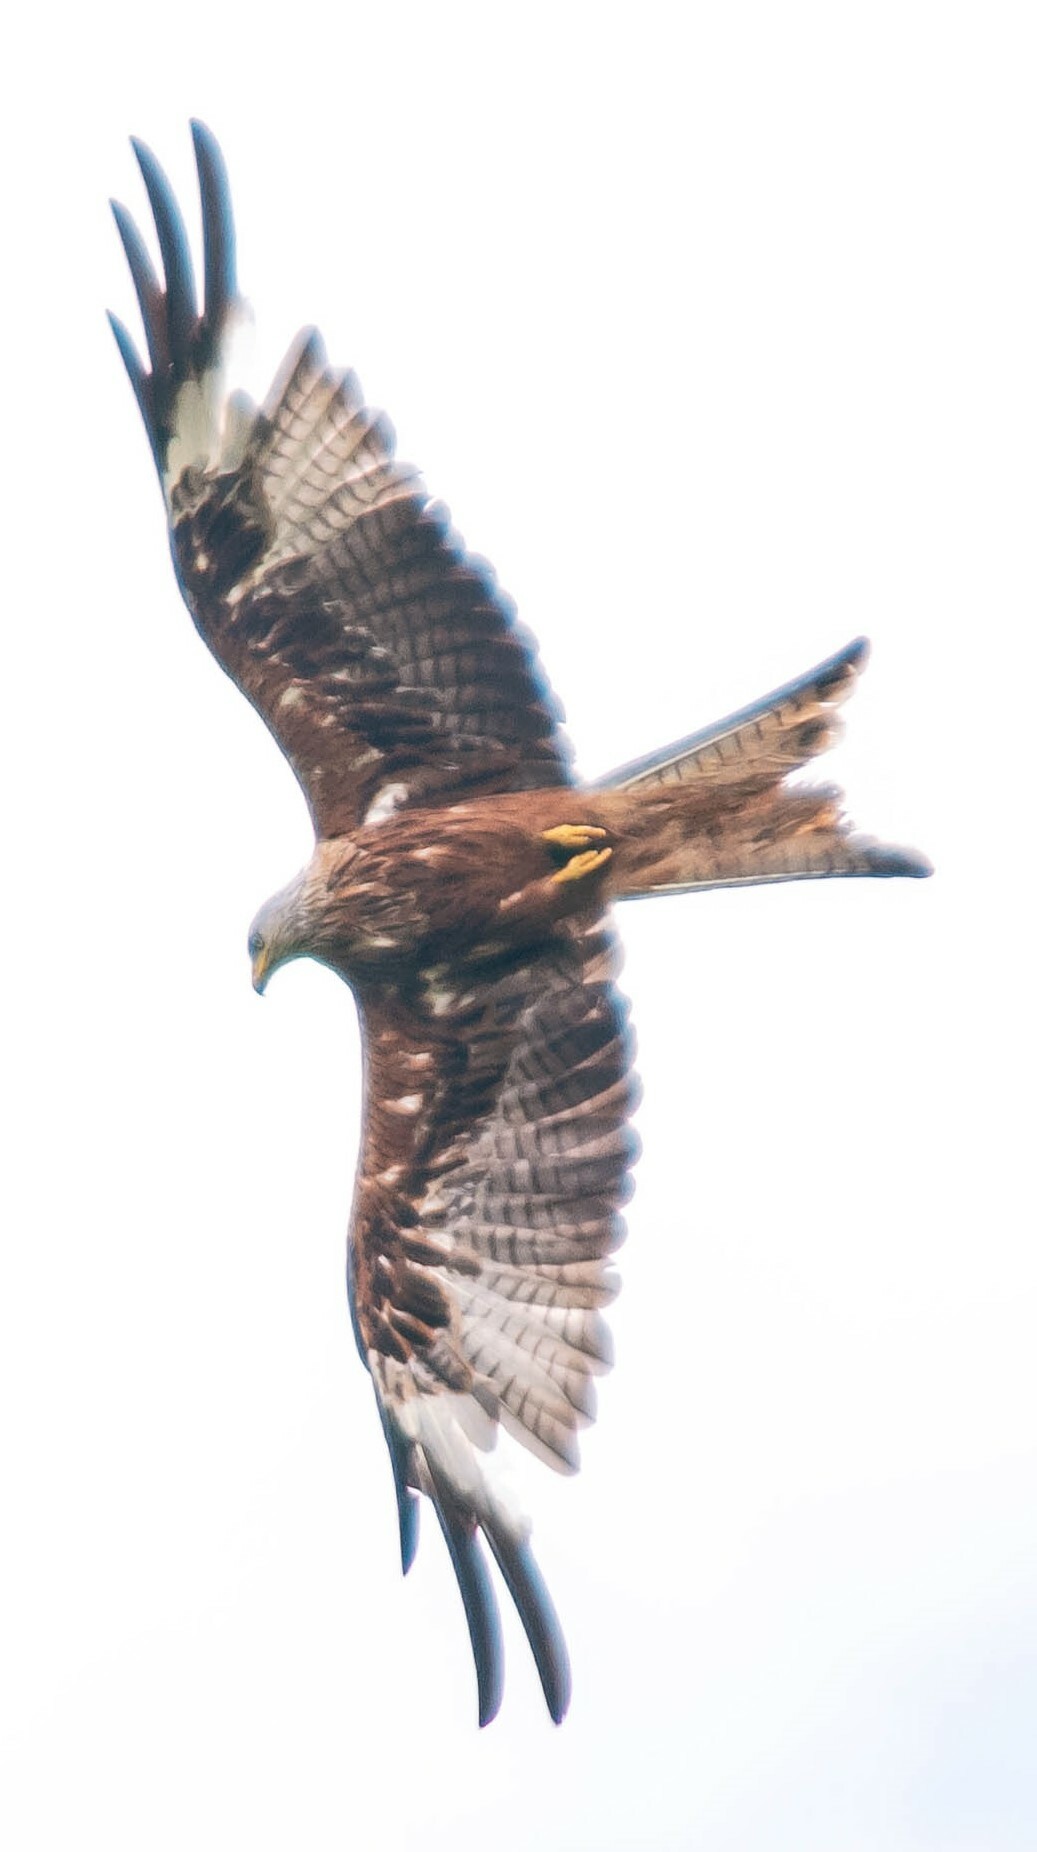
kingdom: Animalia
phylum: Chordata
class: Aves
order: Accipitriformes
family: Accipitridae
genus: Milvus
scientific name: Milvus milvus
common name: Red kite
